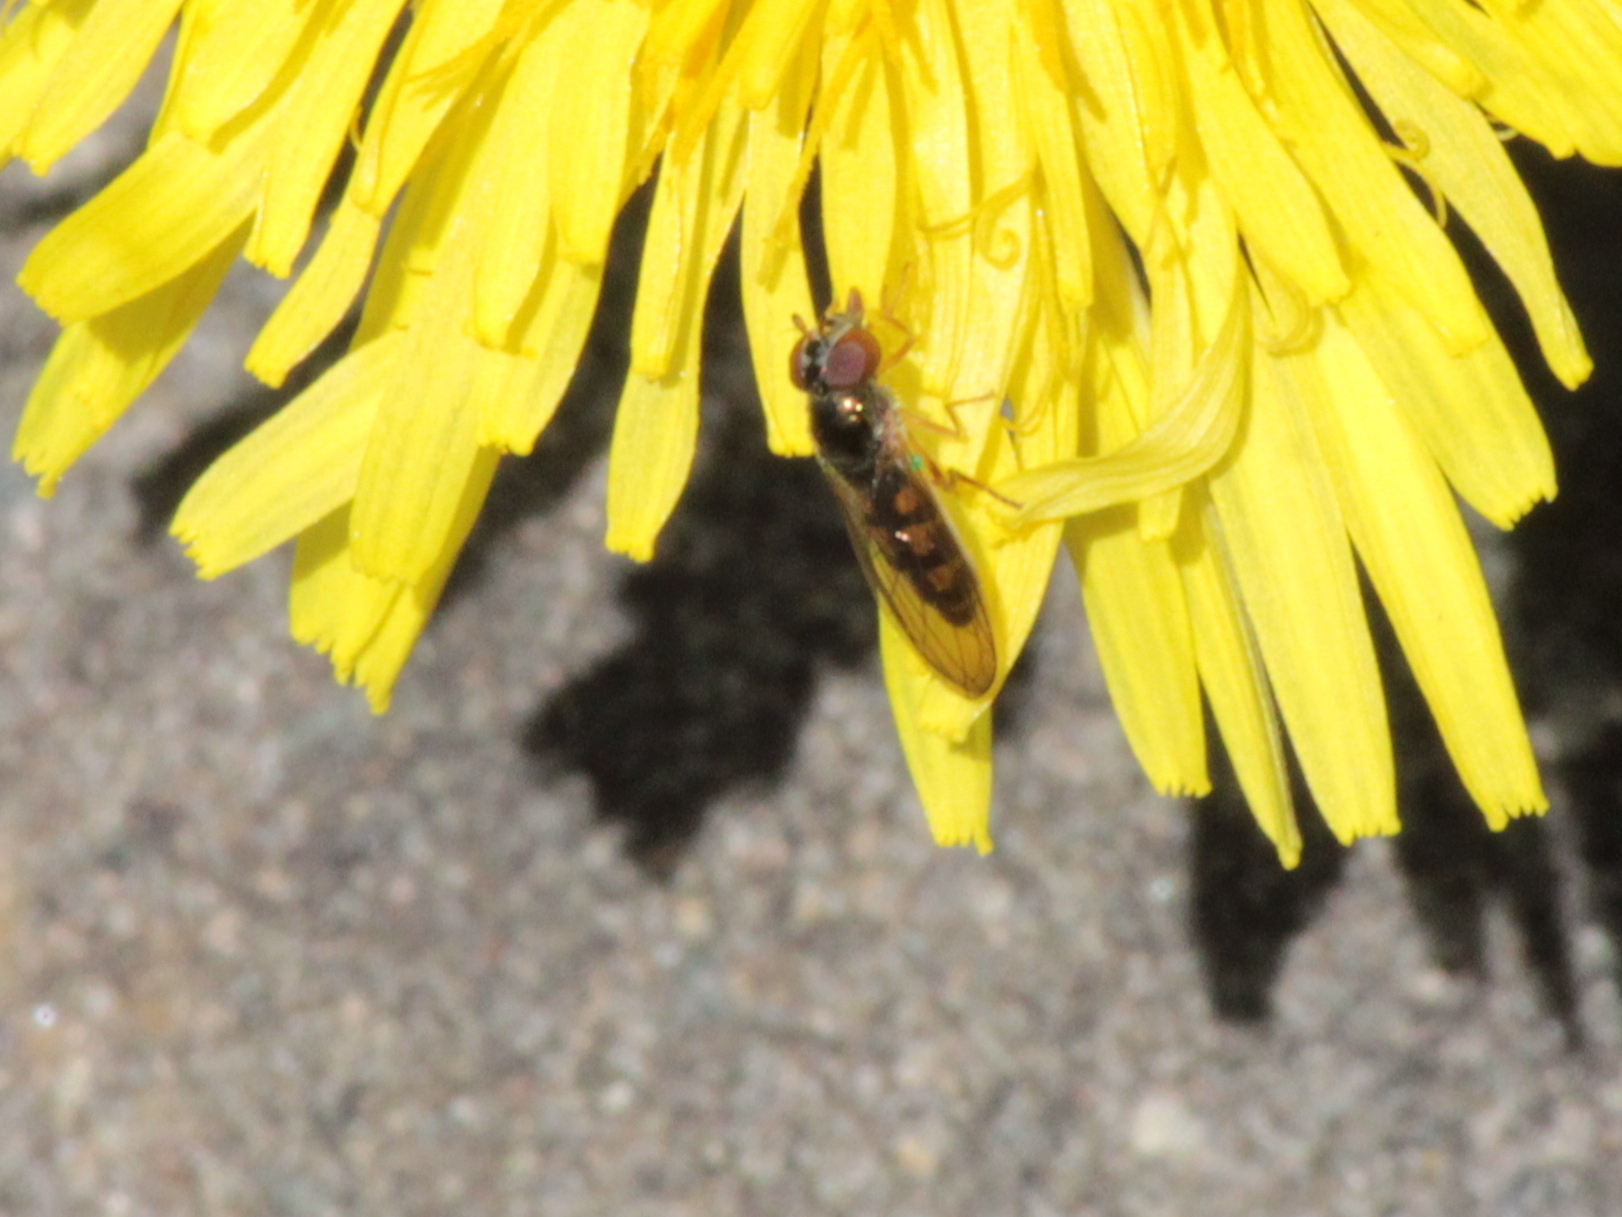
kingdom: Animalia
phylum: Arthropoda
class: Insecta
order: Diptera
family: Syrphidae
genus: Melanostoma
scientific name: Melanostoma mellina
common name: Hover fly
